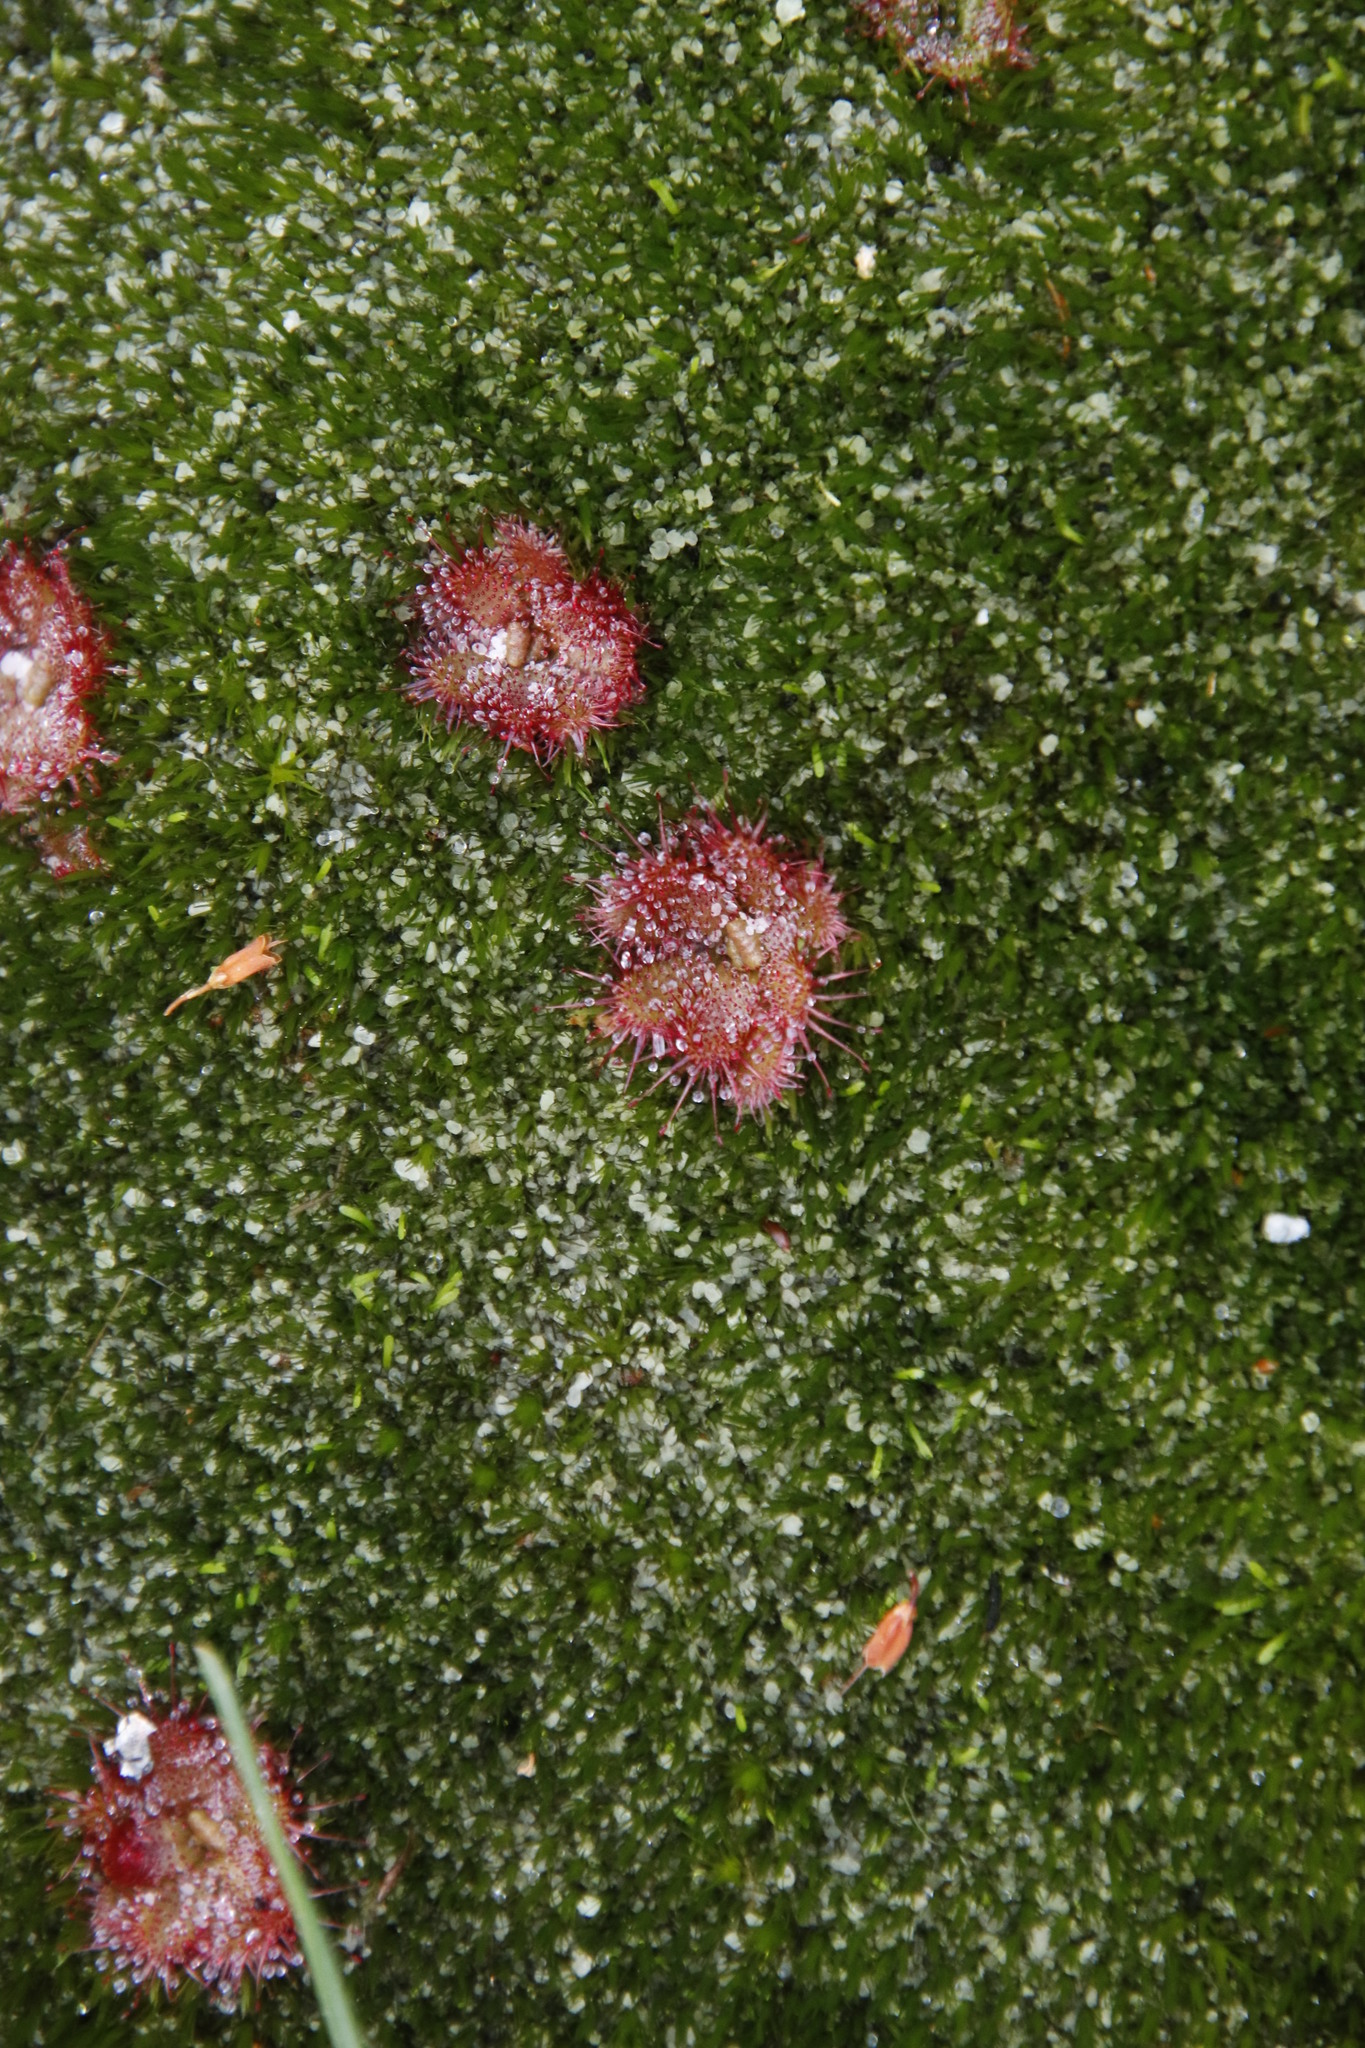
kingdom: Plantae
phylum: Tracheophyta
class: Magnoliopsida
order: Caryophyllales
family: Droseraceae
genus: Drosera
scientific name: Drosera trinervia
